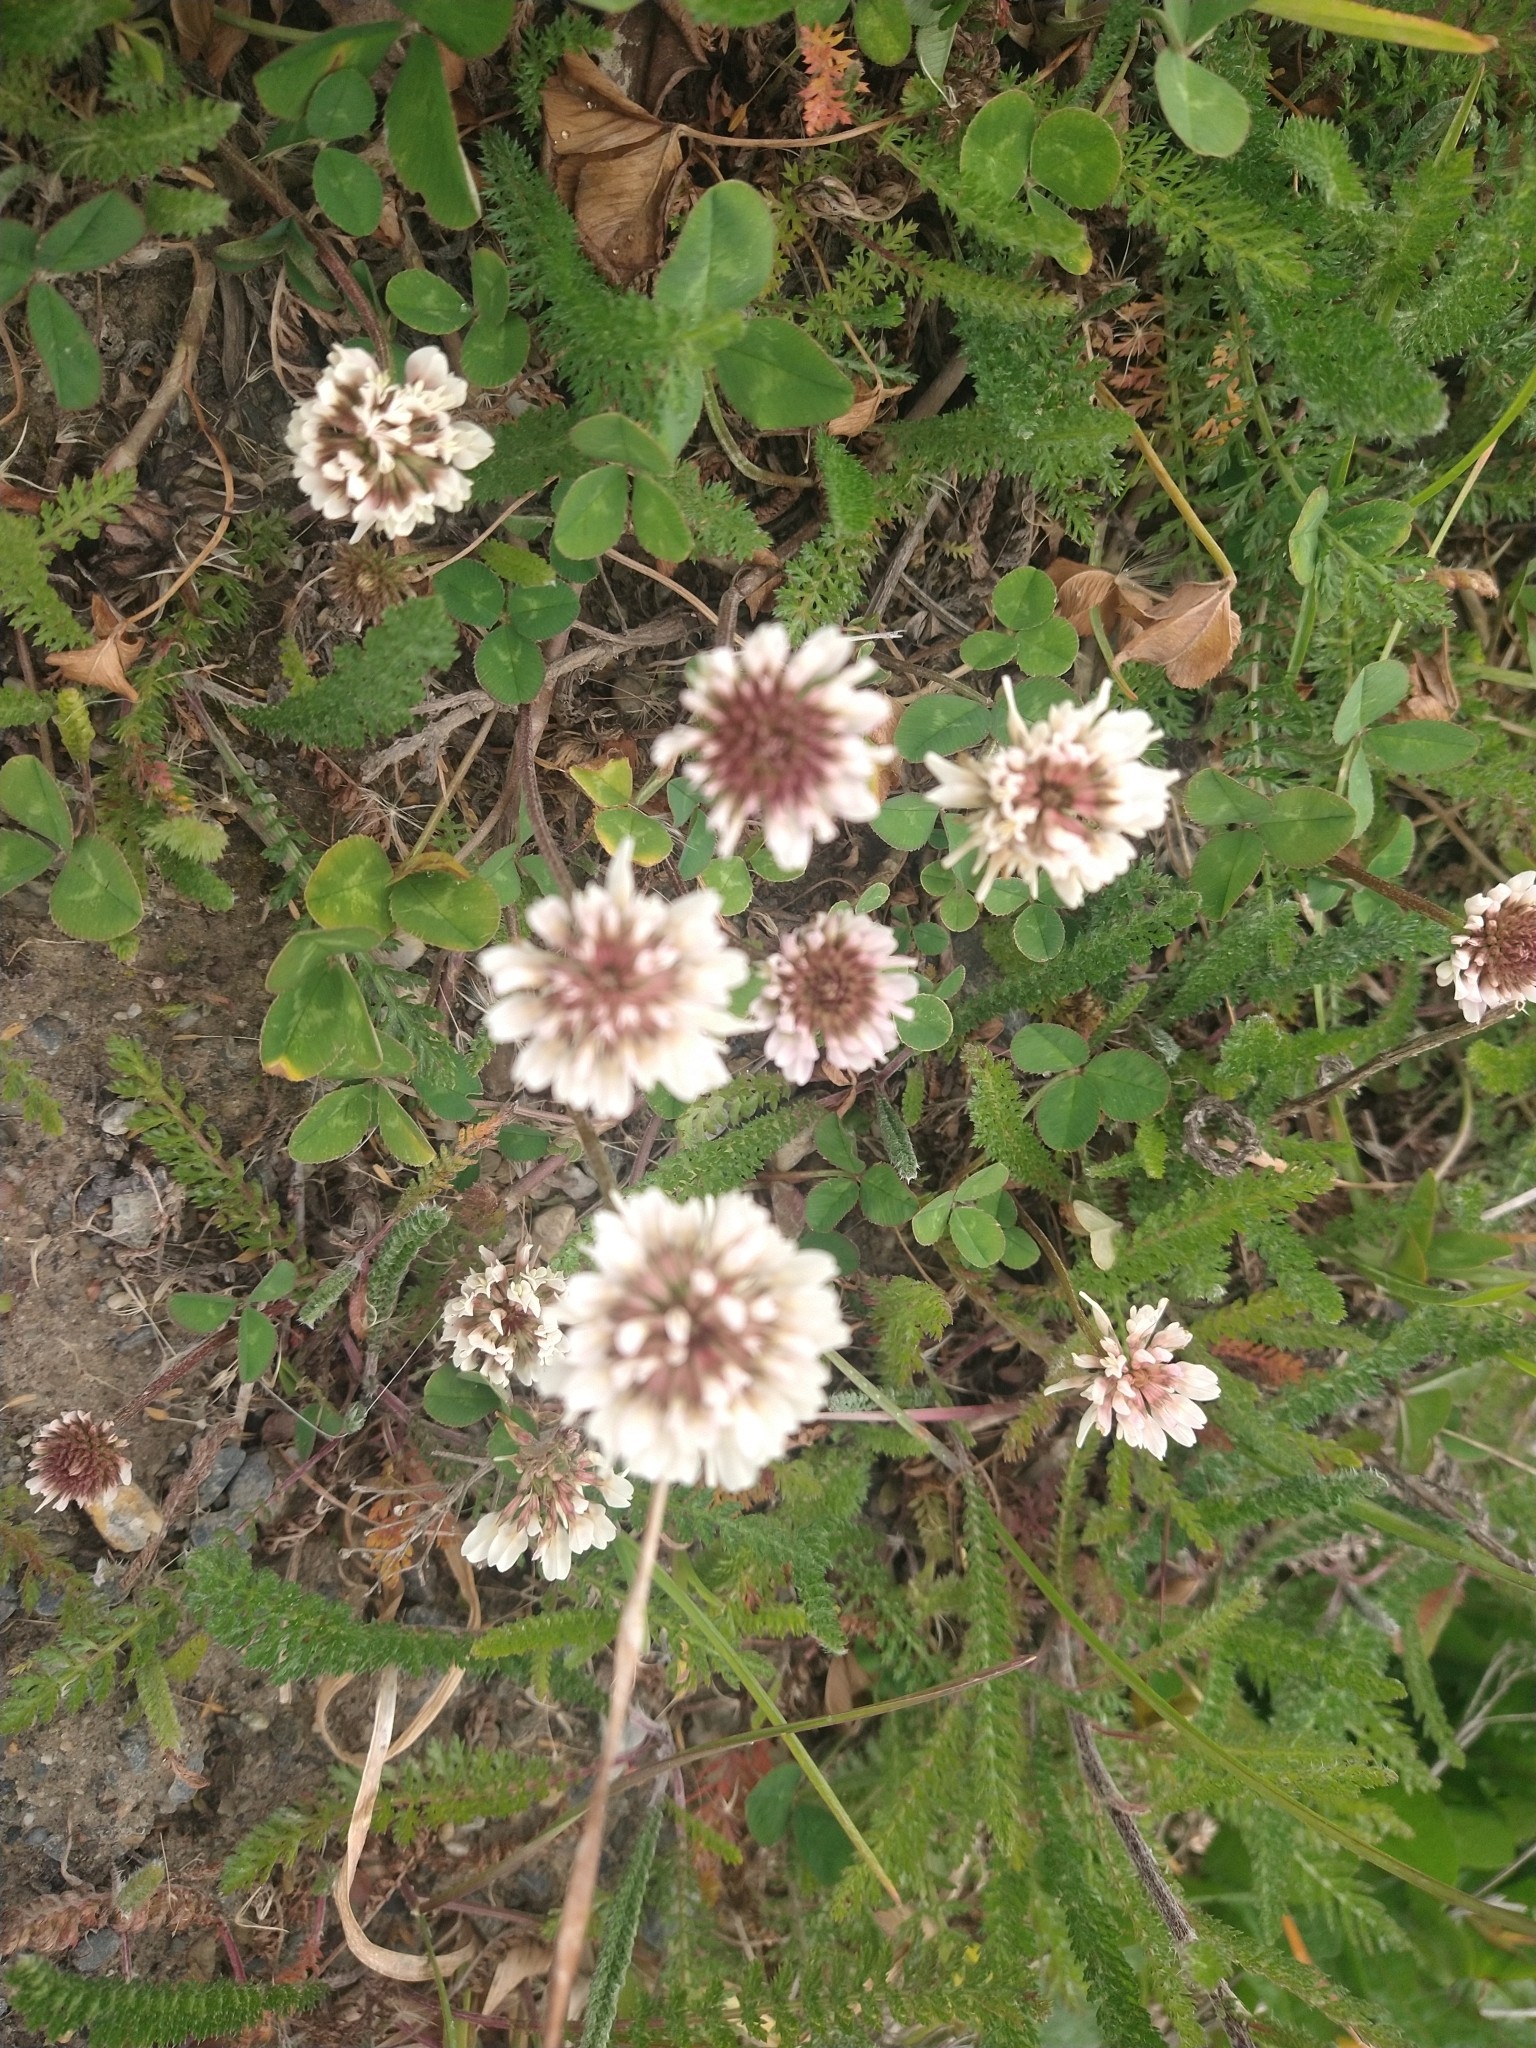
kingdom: Plantae
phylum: Tracheophyta
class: Magnoliopsida
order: Fabales
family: Fabaceae
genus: Trifolium
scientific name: Trifolium repens
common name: White clover
